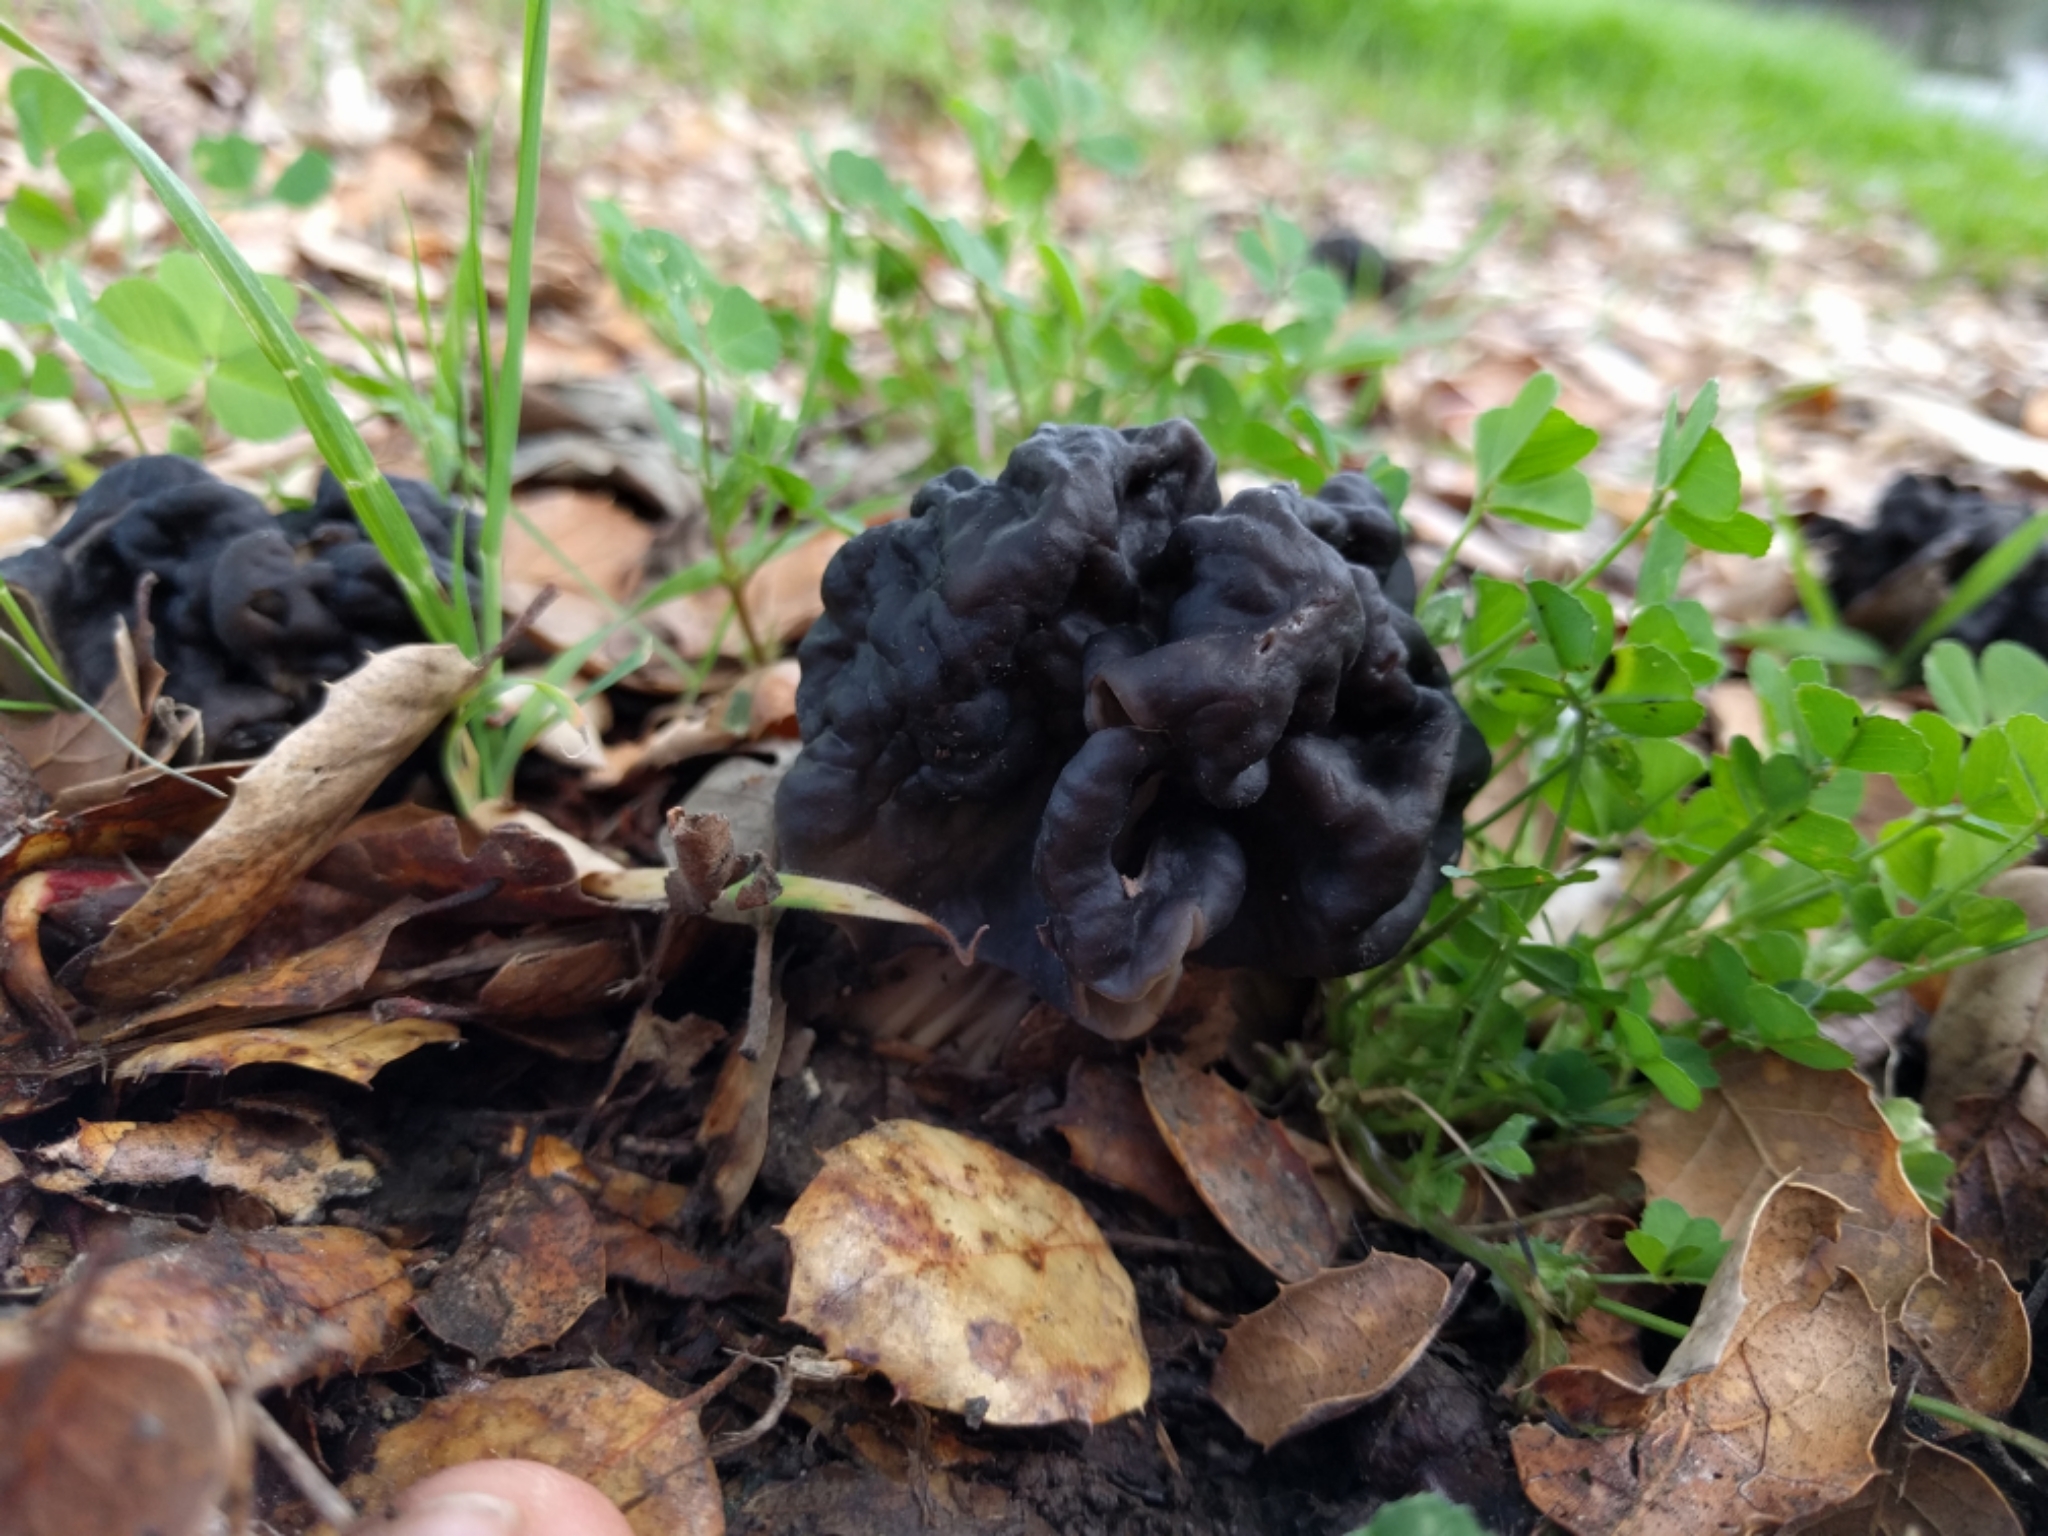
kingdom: Fungi
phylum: Ascomycota
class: Pezizomycetes
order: Pezizales
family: Helvellaceae
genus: Helvella
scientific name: Helvella dryophila
